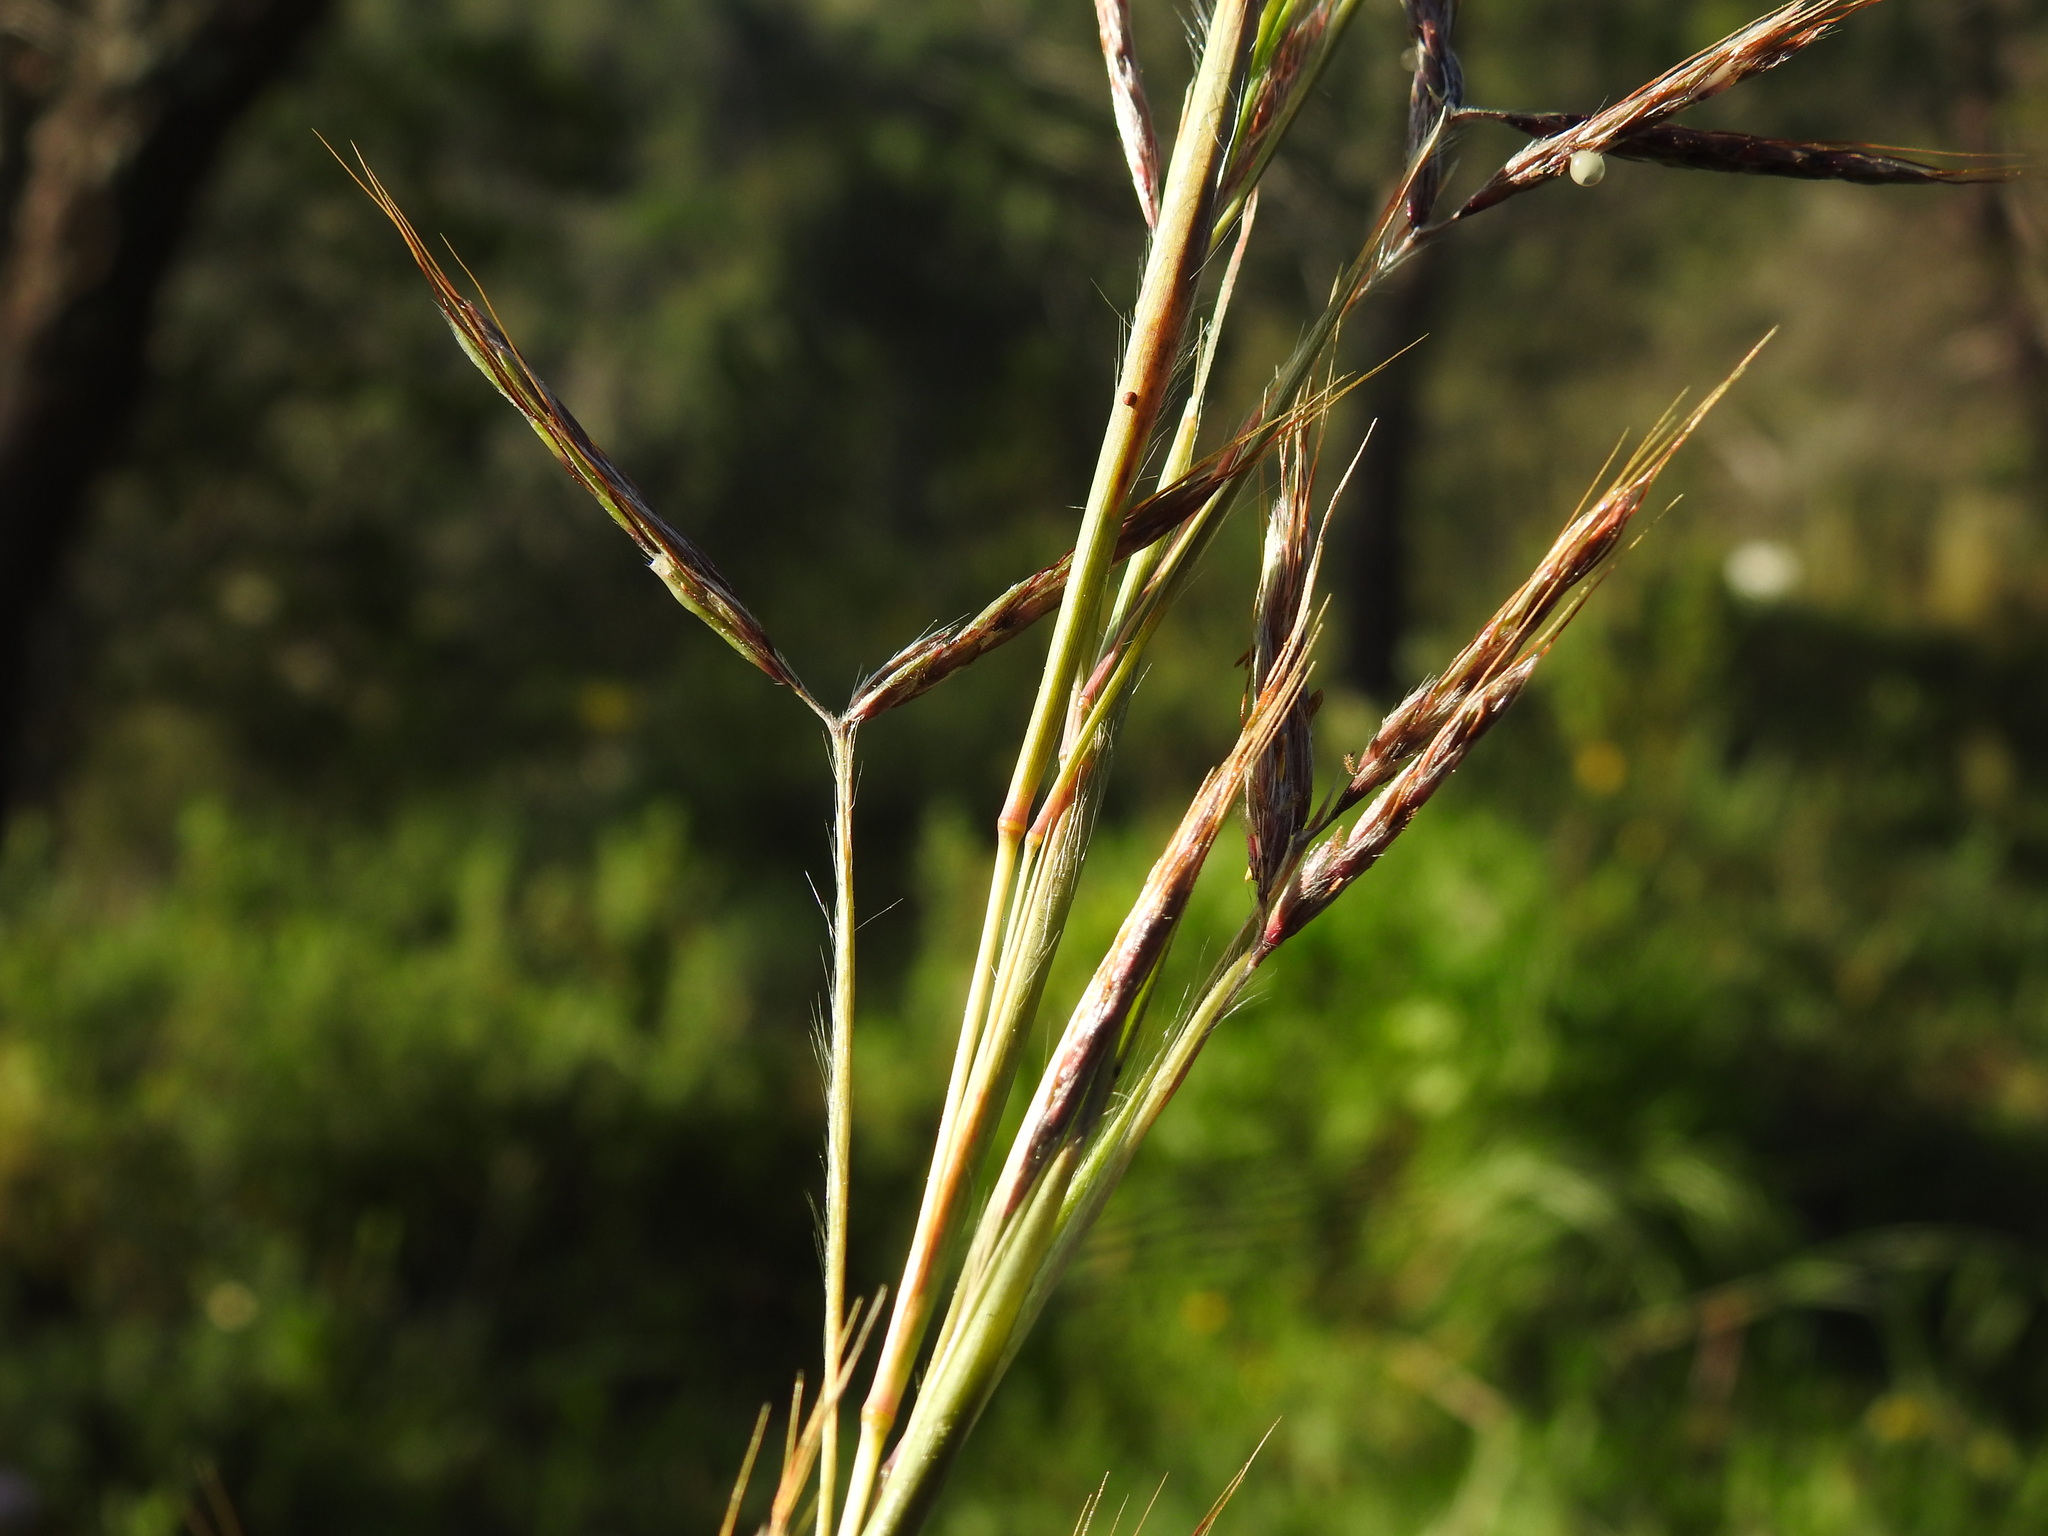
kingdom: Plantae
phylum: Tracheophyta
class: Liliopsida
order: Poales
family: Poaceae
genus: Hyparrhenia
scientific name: Hyparrhenia hirta
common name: Thatching grass
